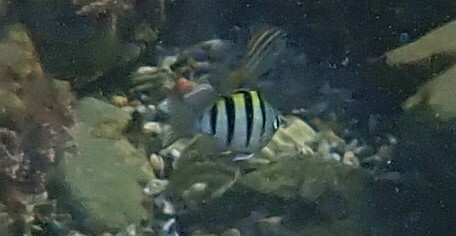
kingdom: Animalia
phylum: Chordata
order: Perciformes
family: Pomacentridae
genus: Abudefduf
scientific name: Abudefduf vaigiensis
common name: Indo-pacific sergeant
